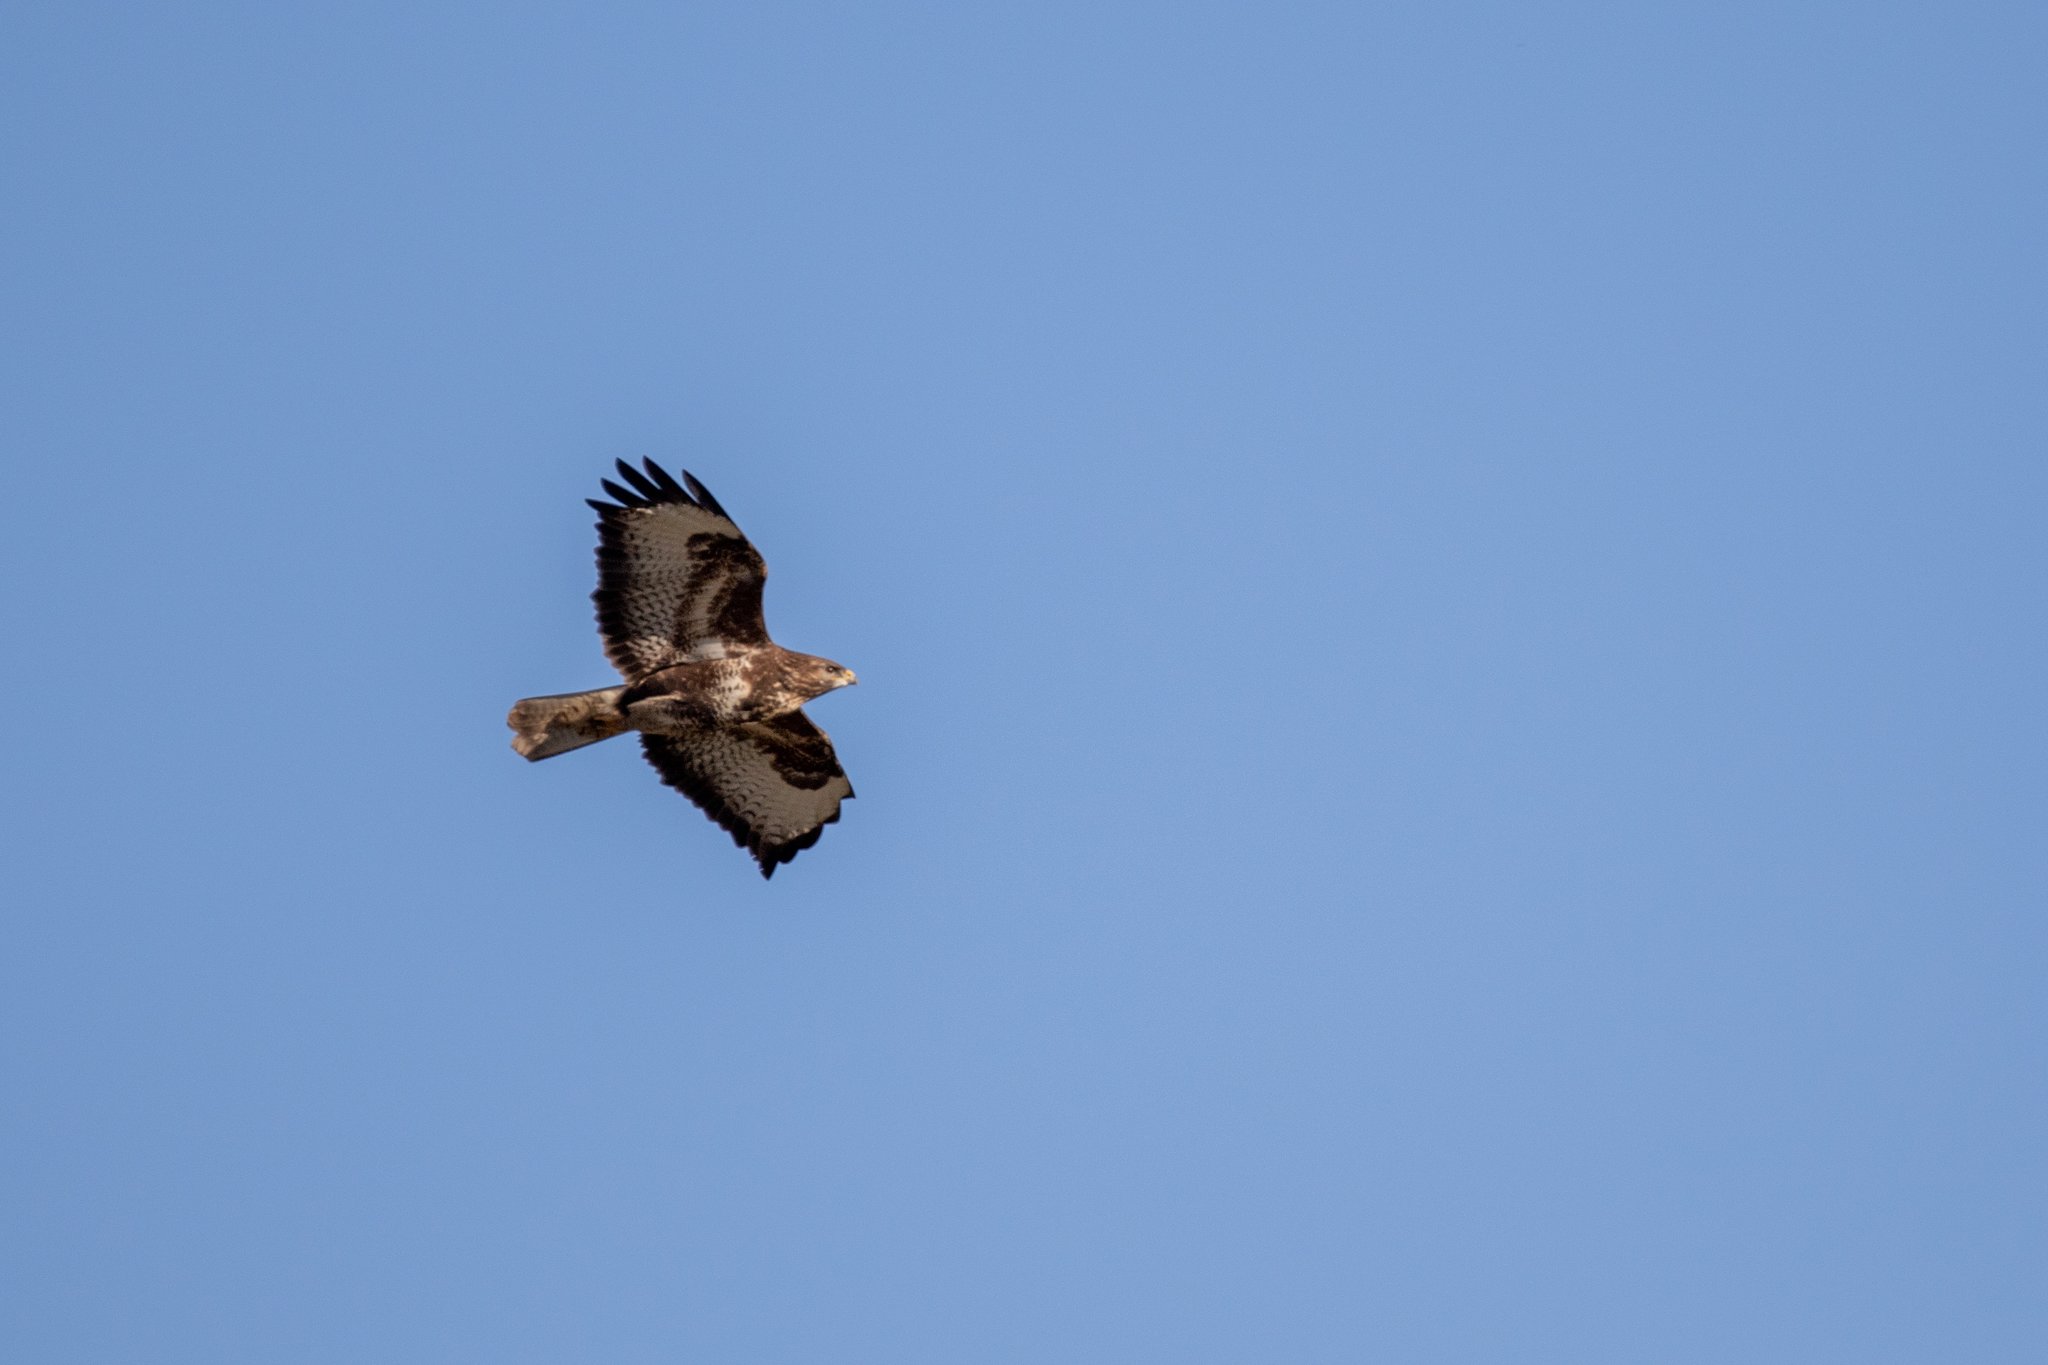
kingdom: Animalia
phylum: Chordata
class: Aves
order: Accipitriformes
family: Accipitridae
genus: Buteo
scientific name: Buteo buteo
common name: Common buzzard
